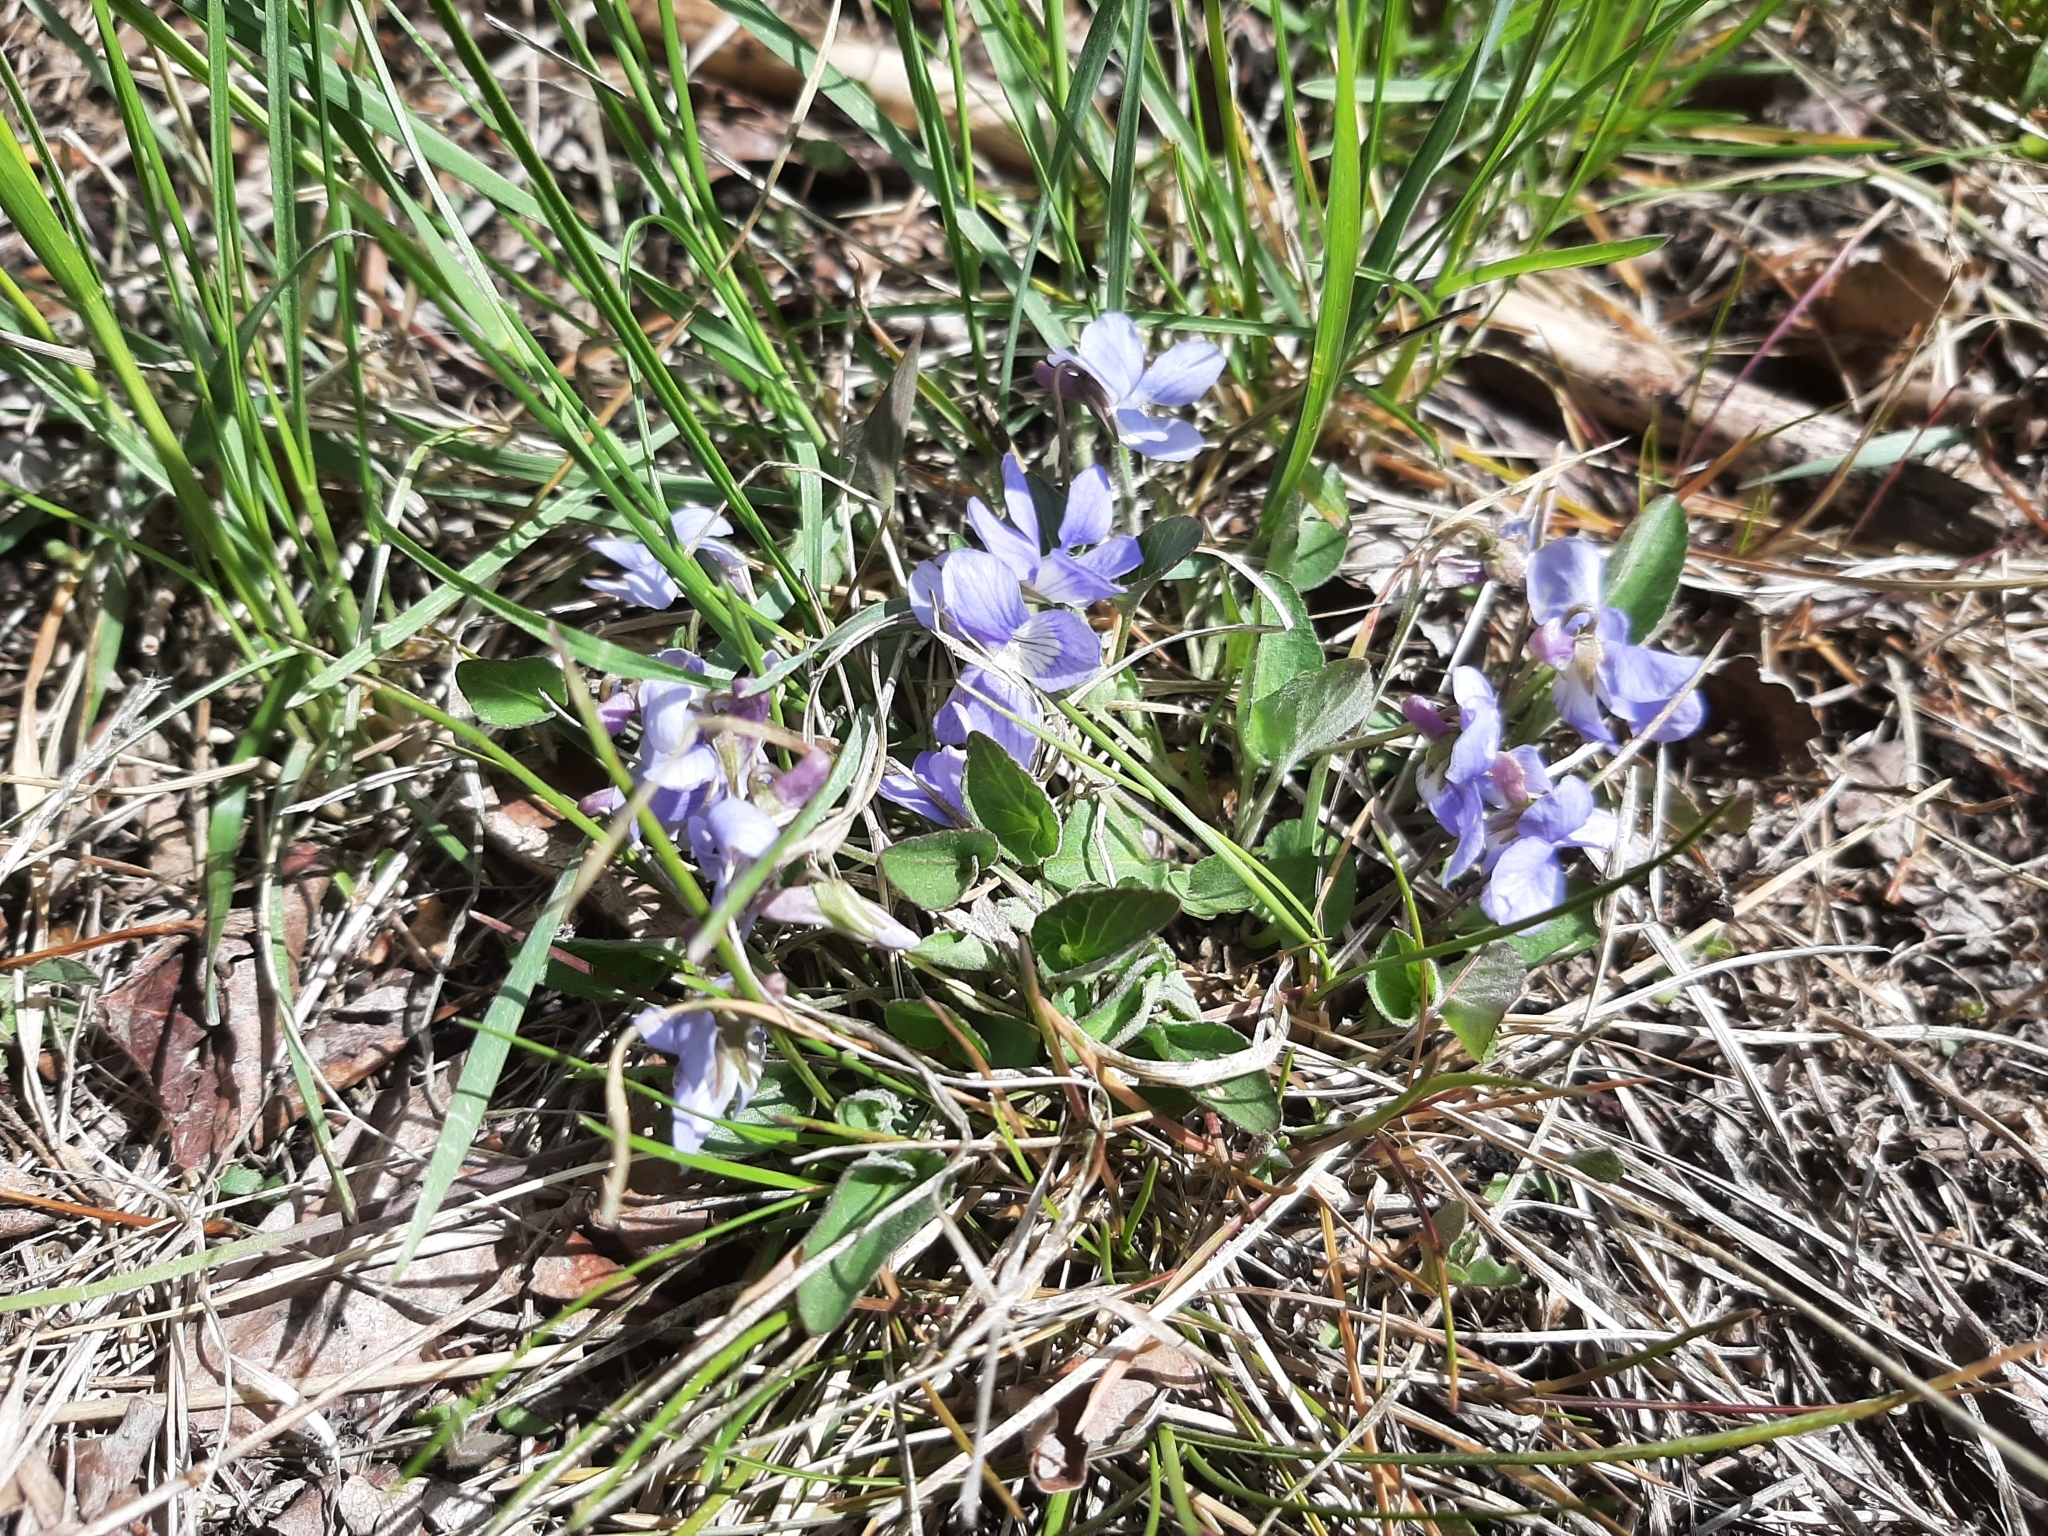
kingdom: Plantae
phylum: Tracheophyta
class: Magnoliopsida
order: Malpighiales
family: Violaceae
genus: Viola
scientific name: Viola adunca
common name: Sand violet
